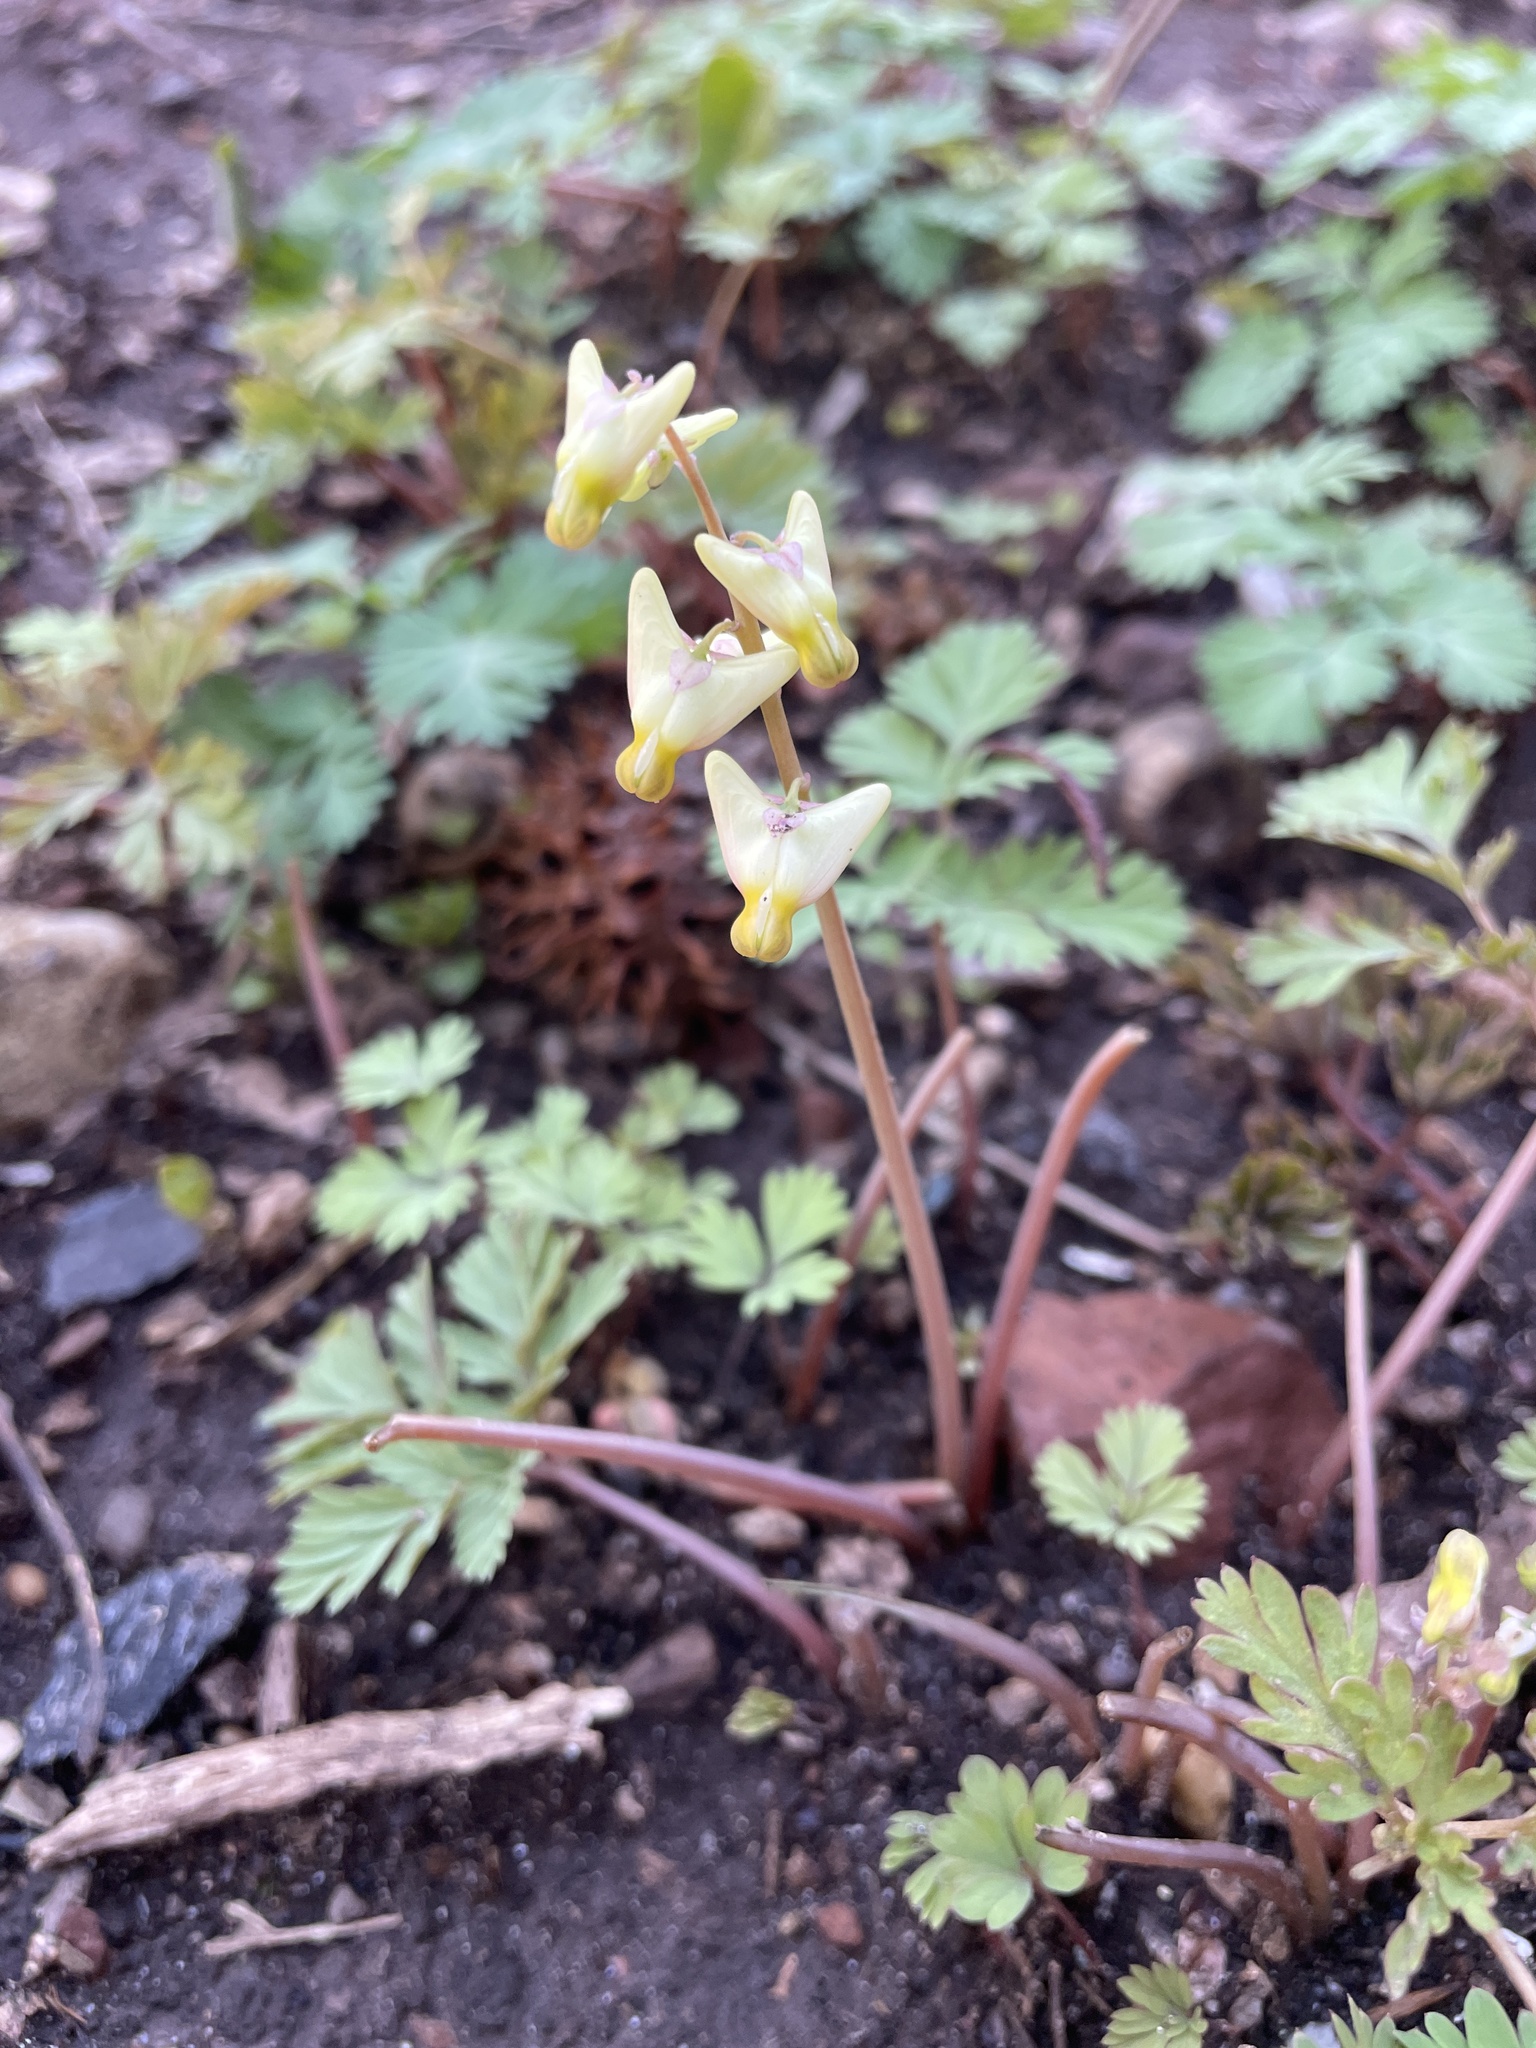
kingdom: Plantae
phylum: Tracheophyta
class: Magnoliopsida
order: Ranunculales
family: Papaveraceae
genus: Dicentra
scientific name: Dicentra cucullaria
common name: Dutchman's breeches
